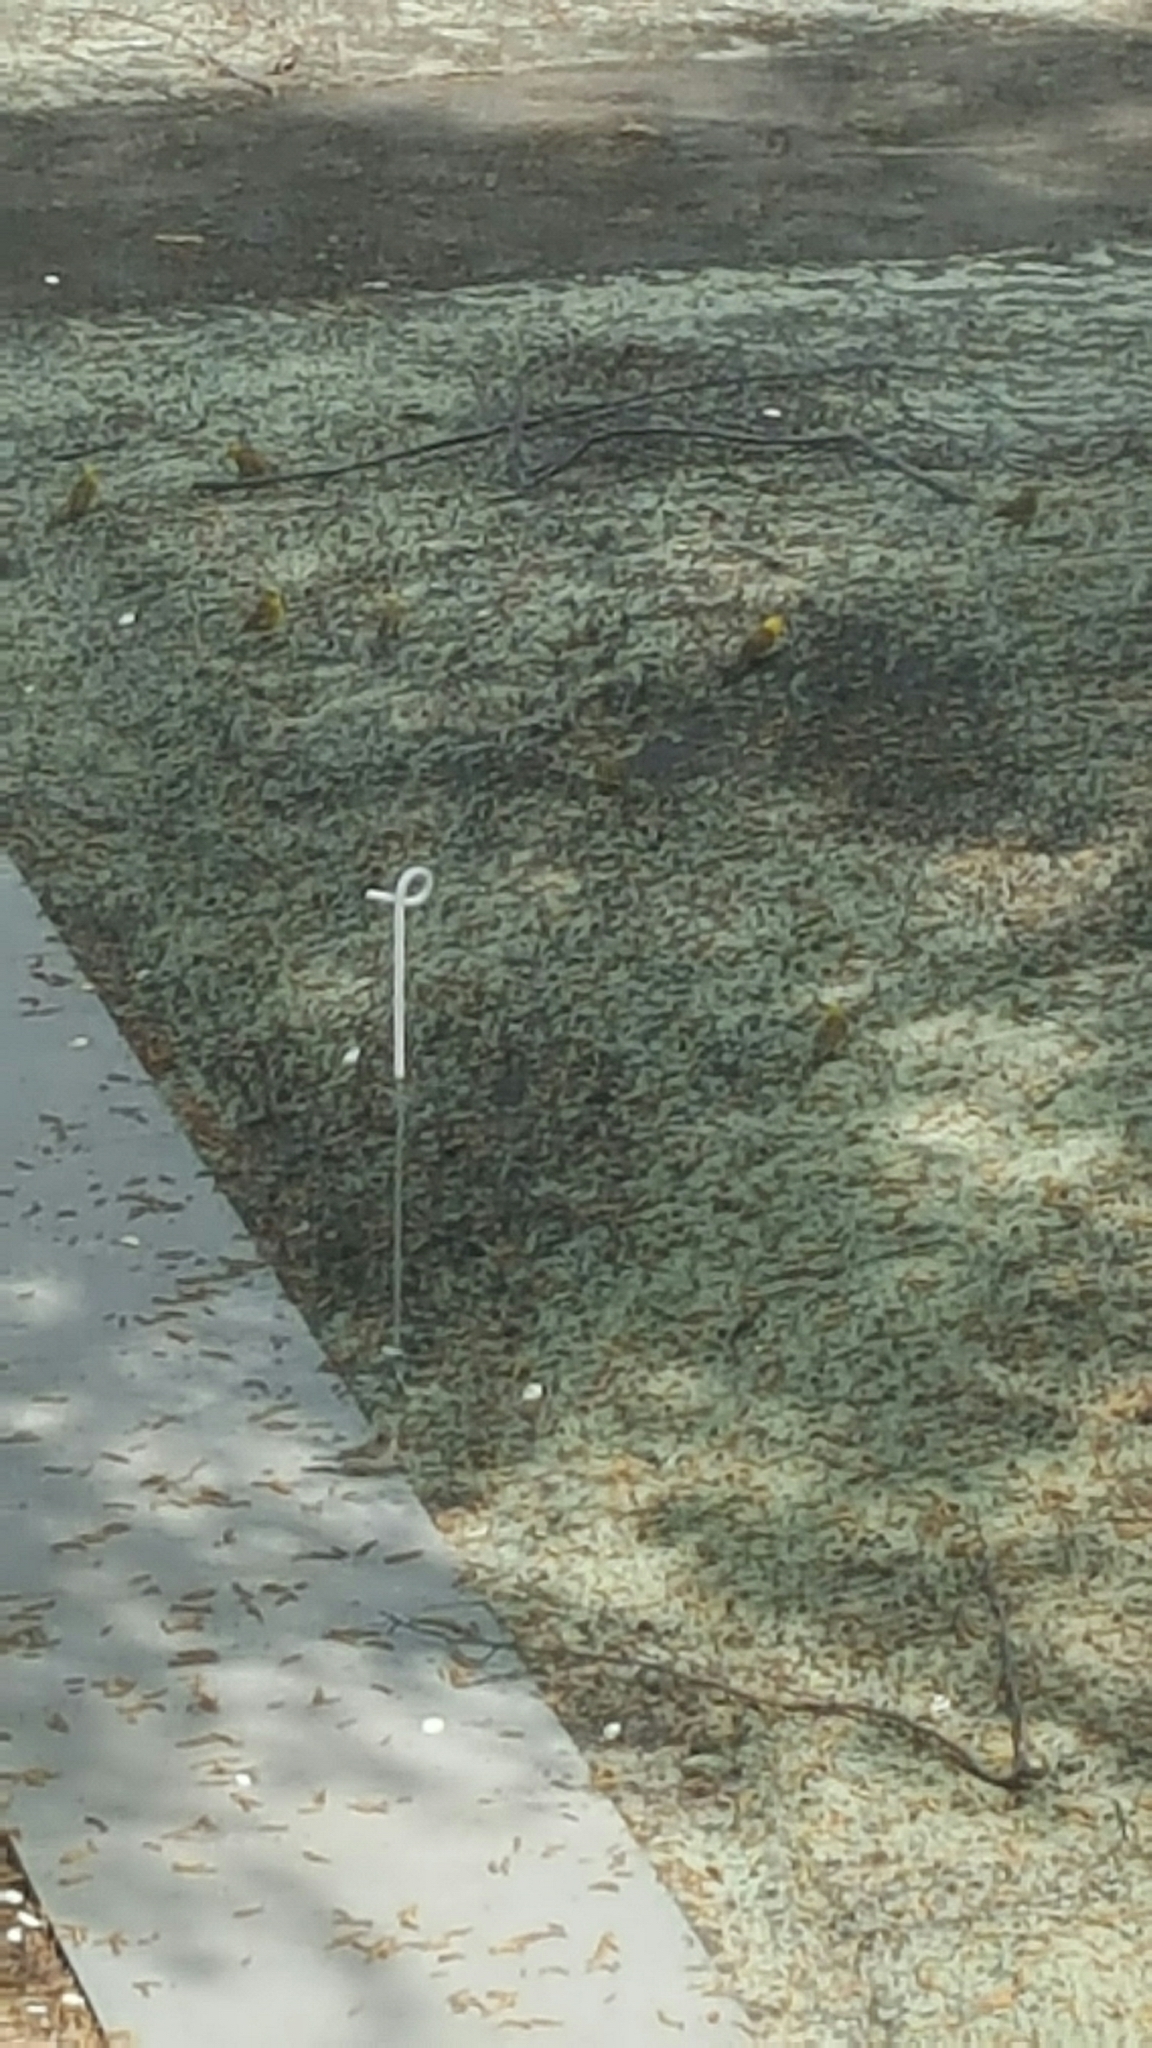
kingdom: Animalia
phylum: Chordata
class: Aves
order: Passeriformes
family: Emberizidae
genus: Emberiza
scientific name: Emberiza citrinella
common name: Yellowhammer
